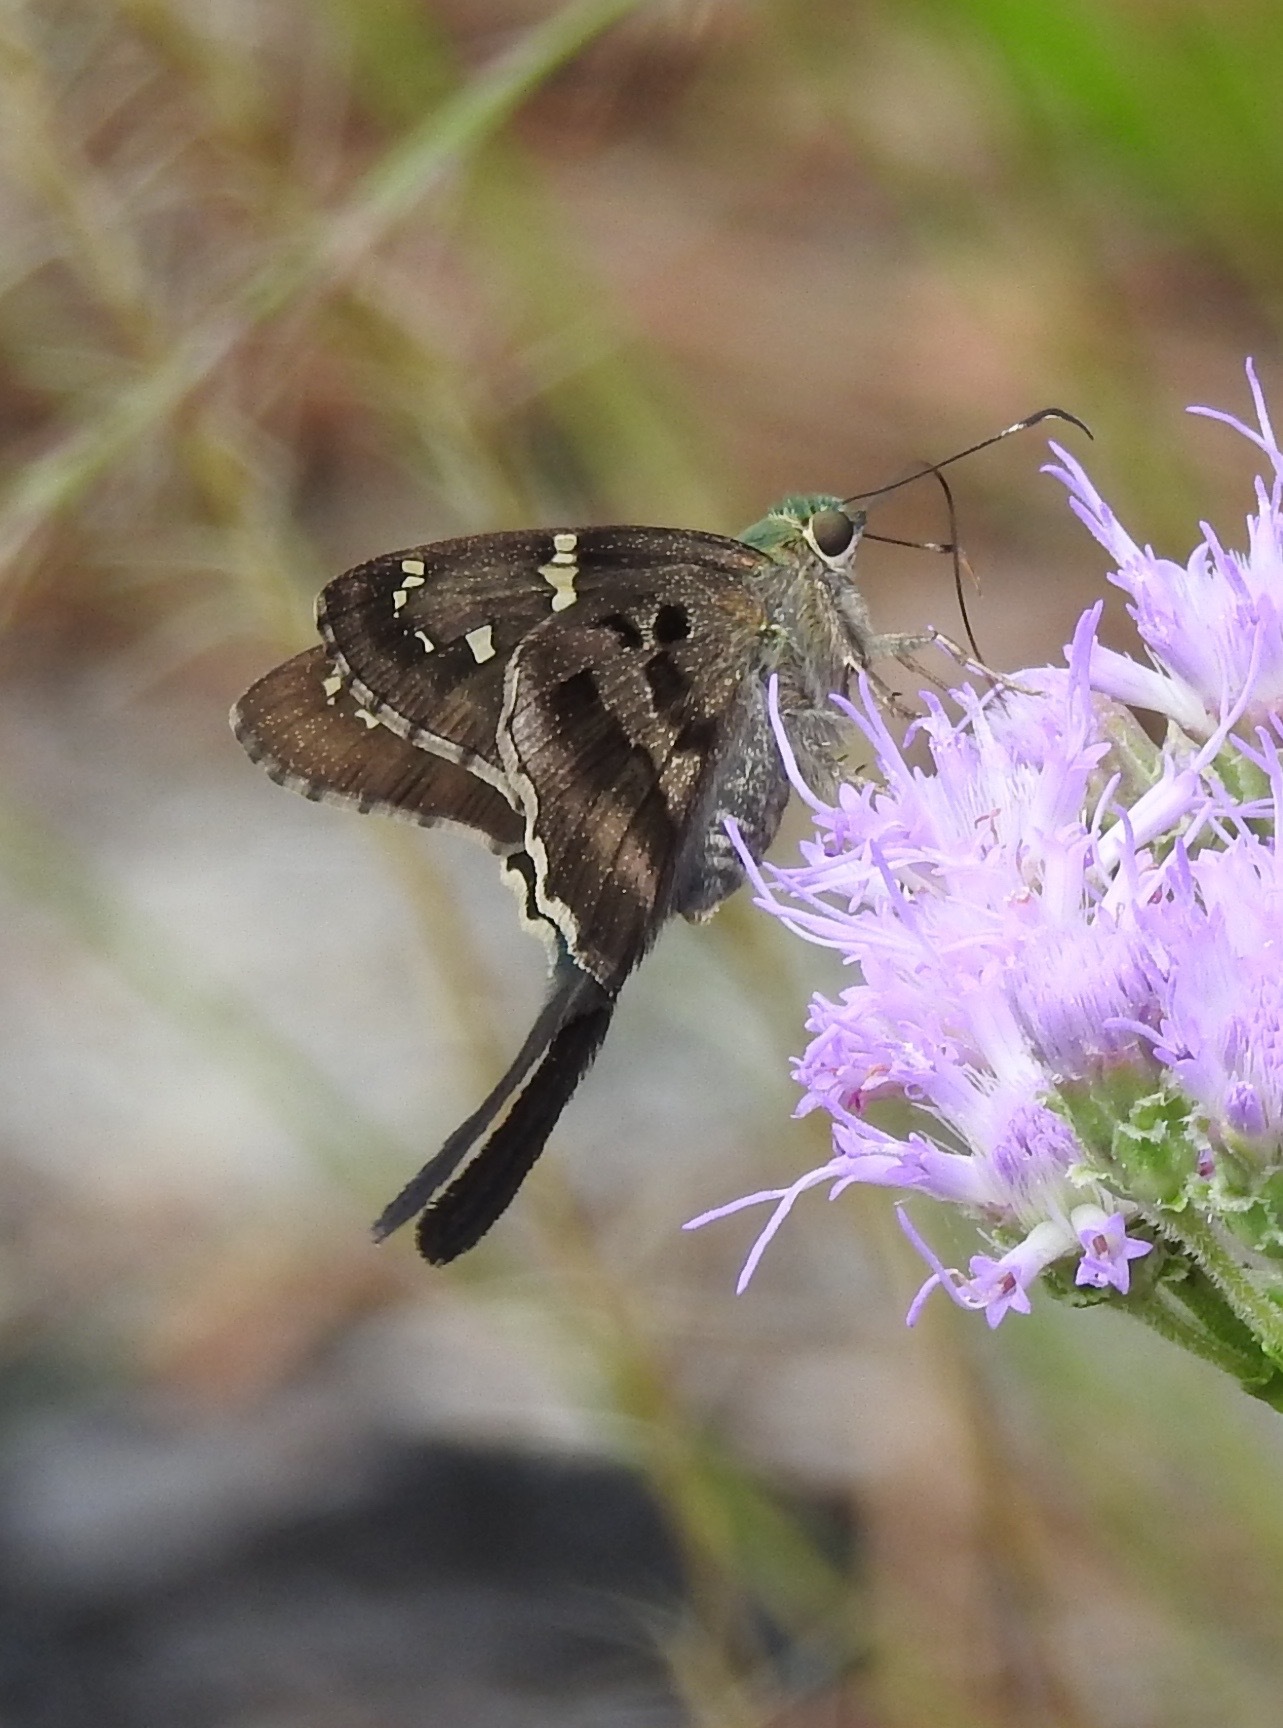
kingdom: Animalia
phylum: Arthropoda
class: Insecta
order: Lepidoptera
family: Hesperiidae
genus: Urbanus
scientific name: Urbanus proteus
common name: Long-tailed skipper
